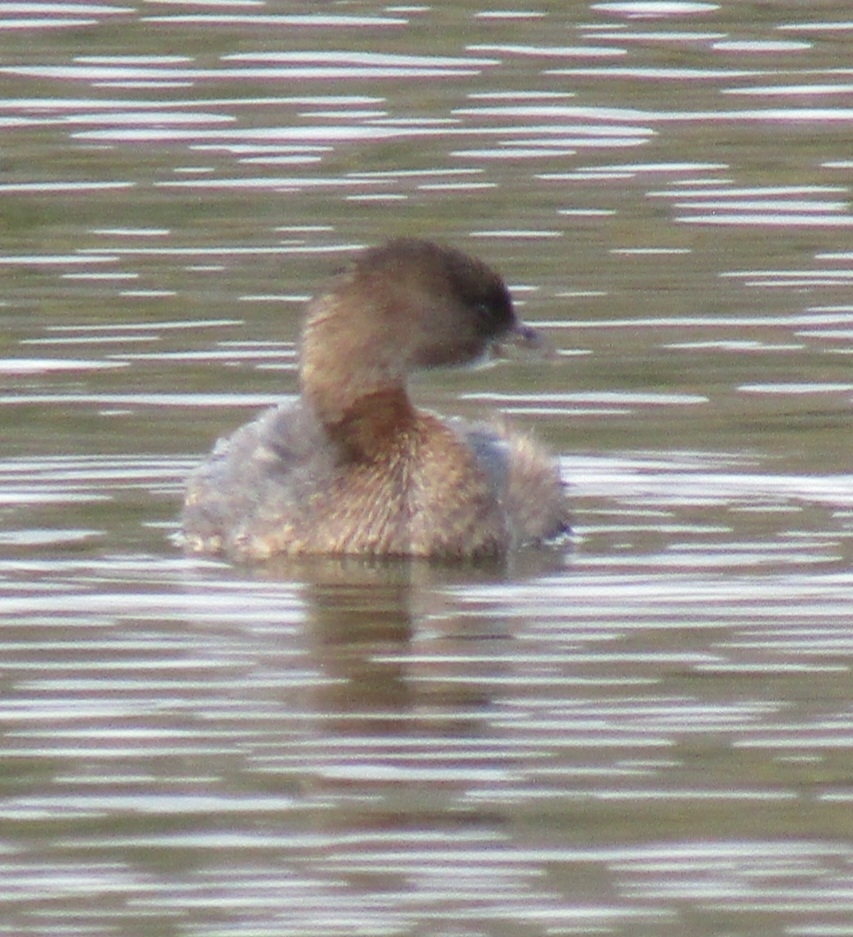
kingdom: Animalia
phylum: Chordata
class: Aves
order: Podicipediformes
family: Podicipedidae
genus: Podilymbus
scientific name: Podilymbus podiceps
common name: Pied-billed grebe
